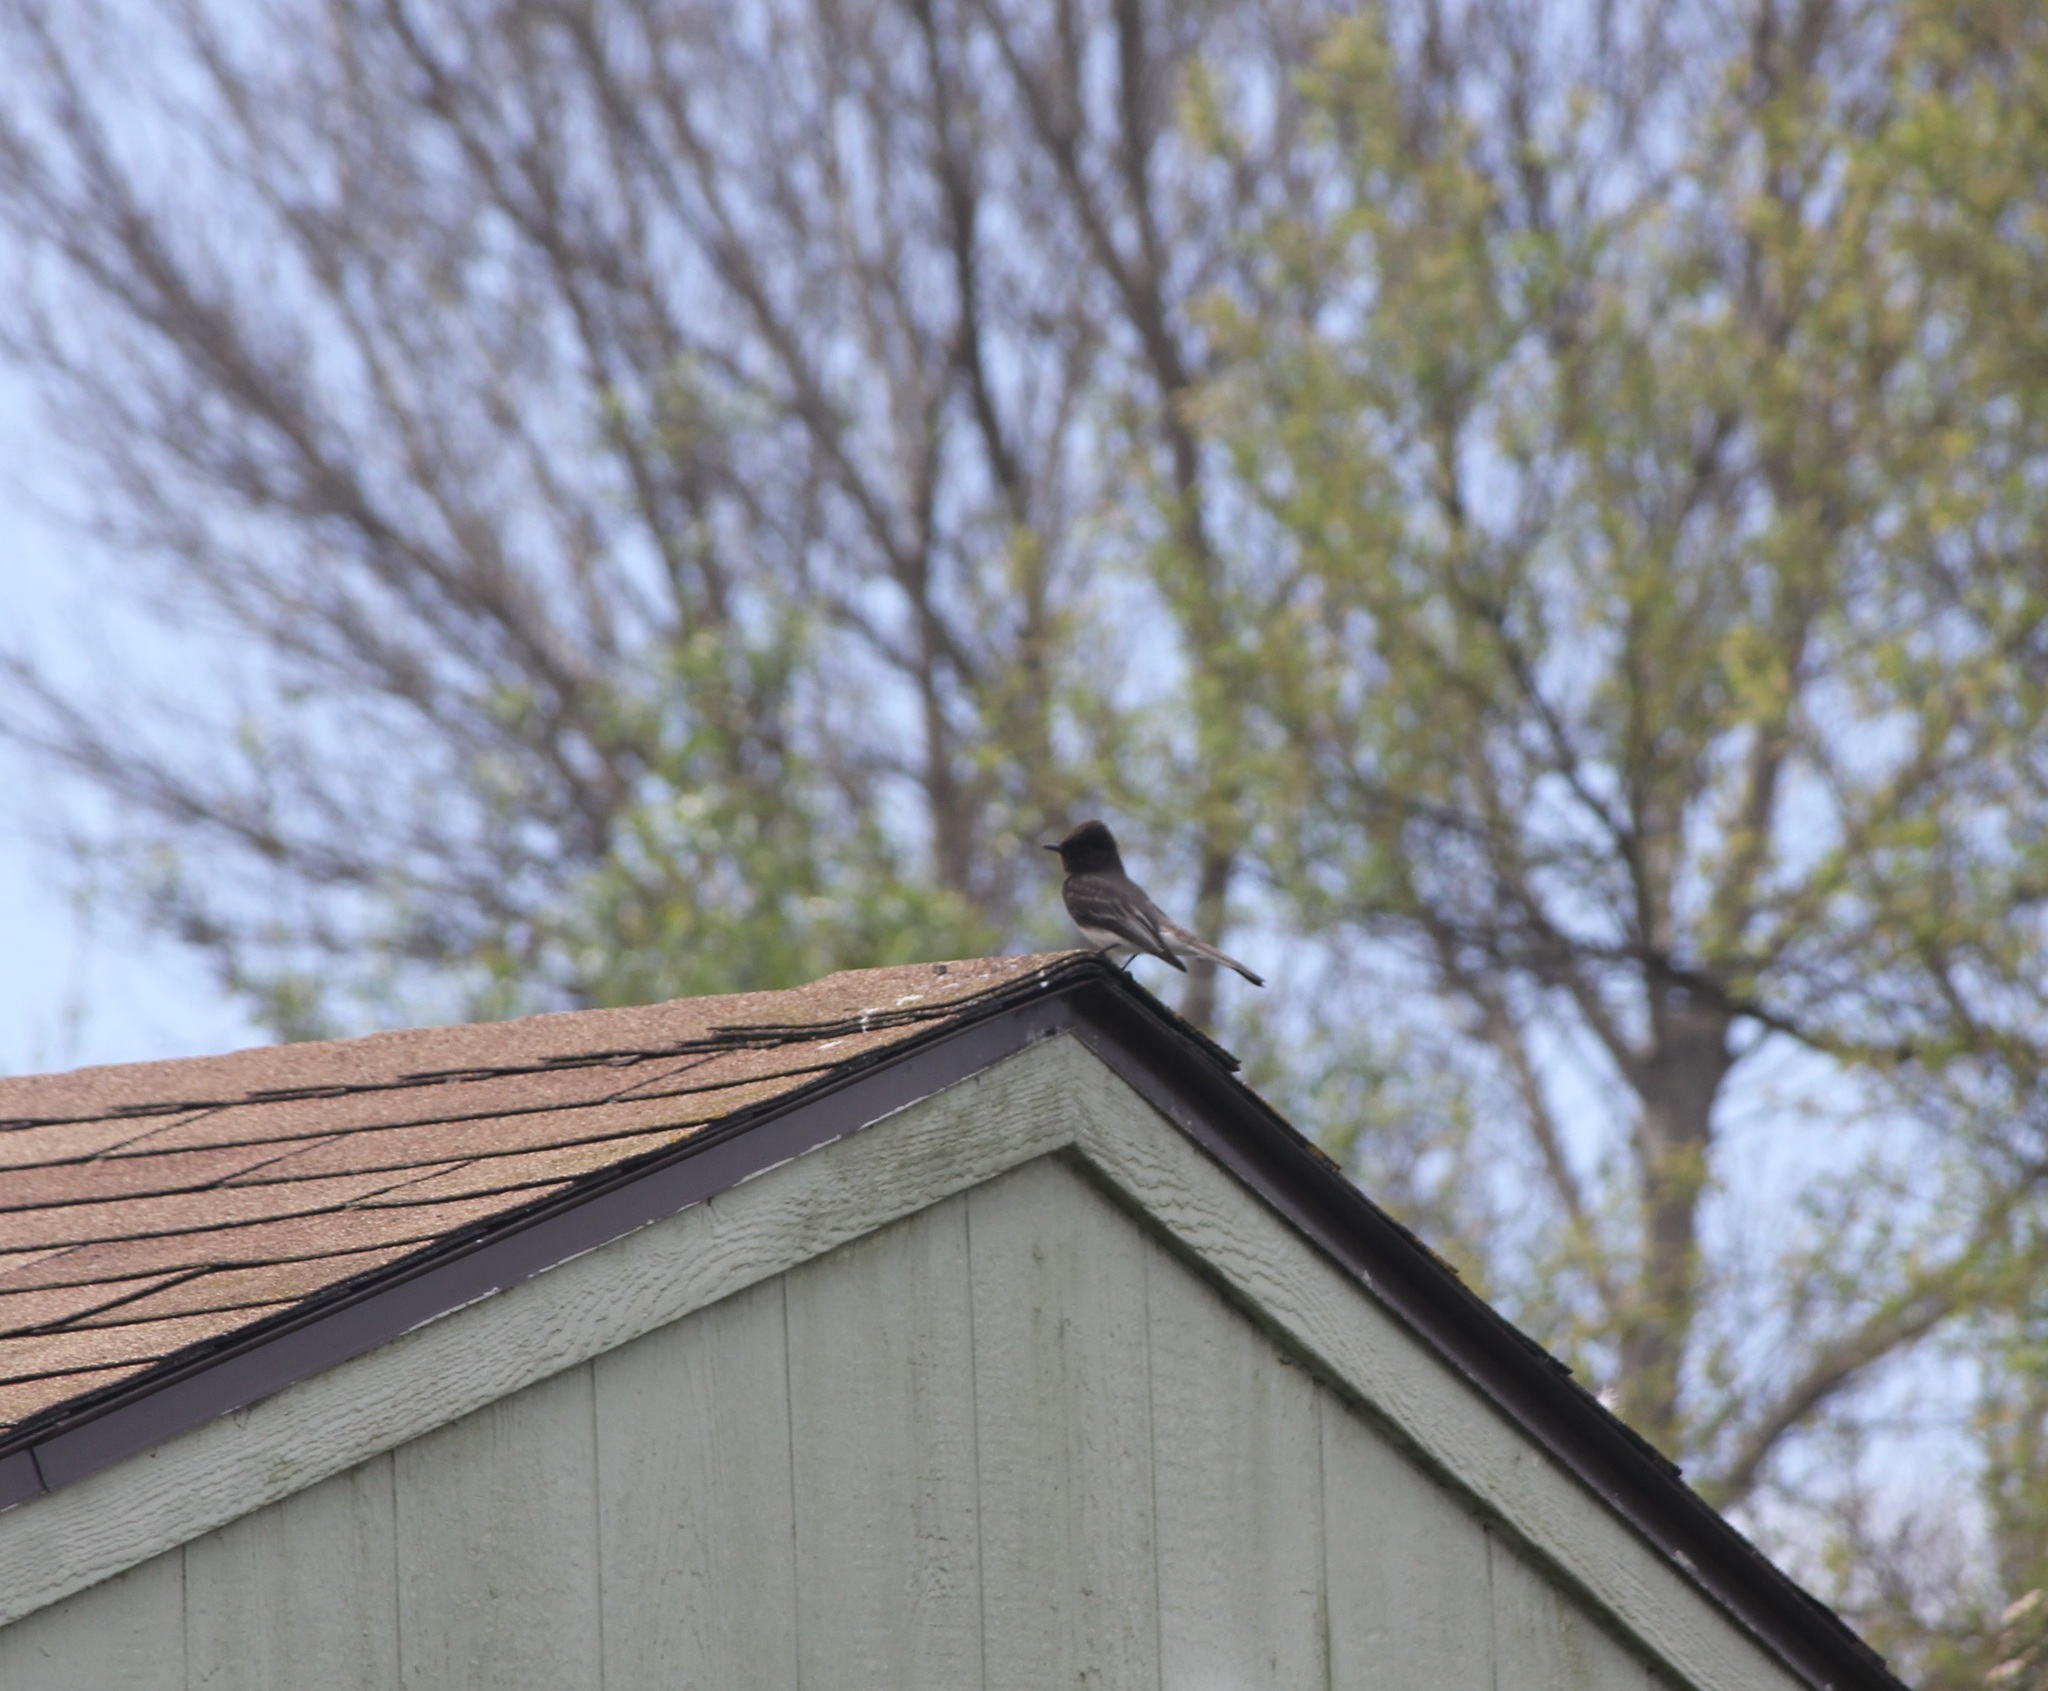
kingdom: Animalia
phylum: Chordata
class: Aves
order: Passeriformes
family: Tyrannidae
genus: Sayornis
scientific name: Sayornis nigricans
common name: Black phoebe
